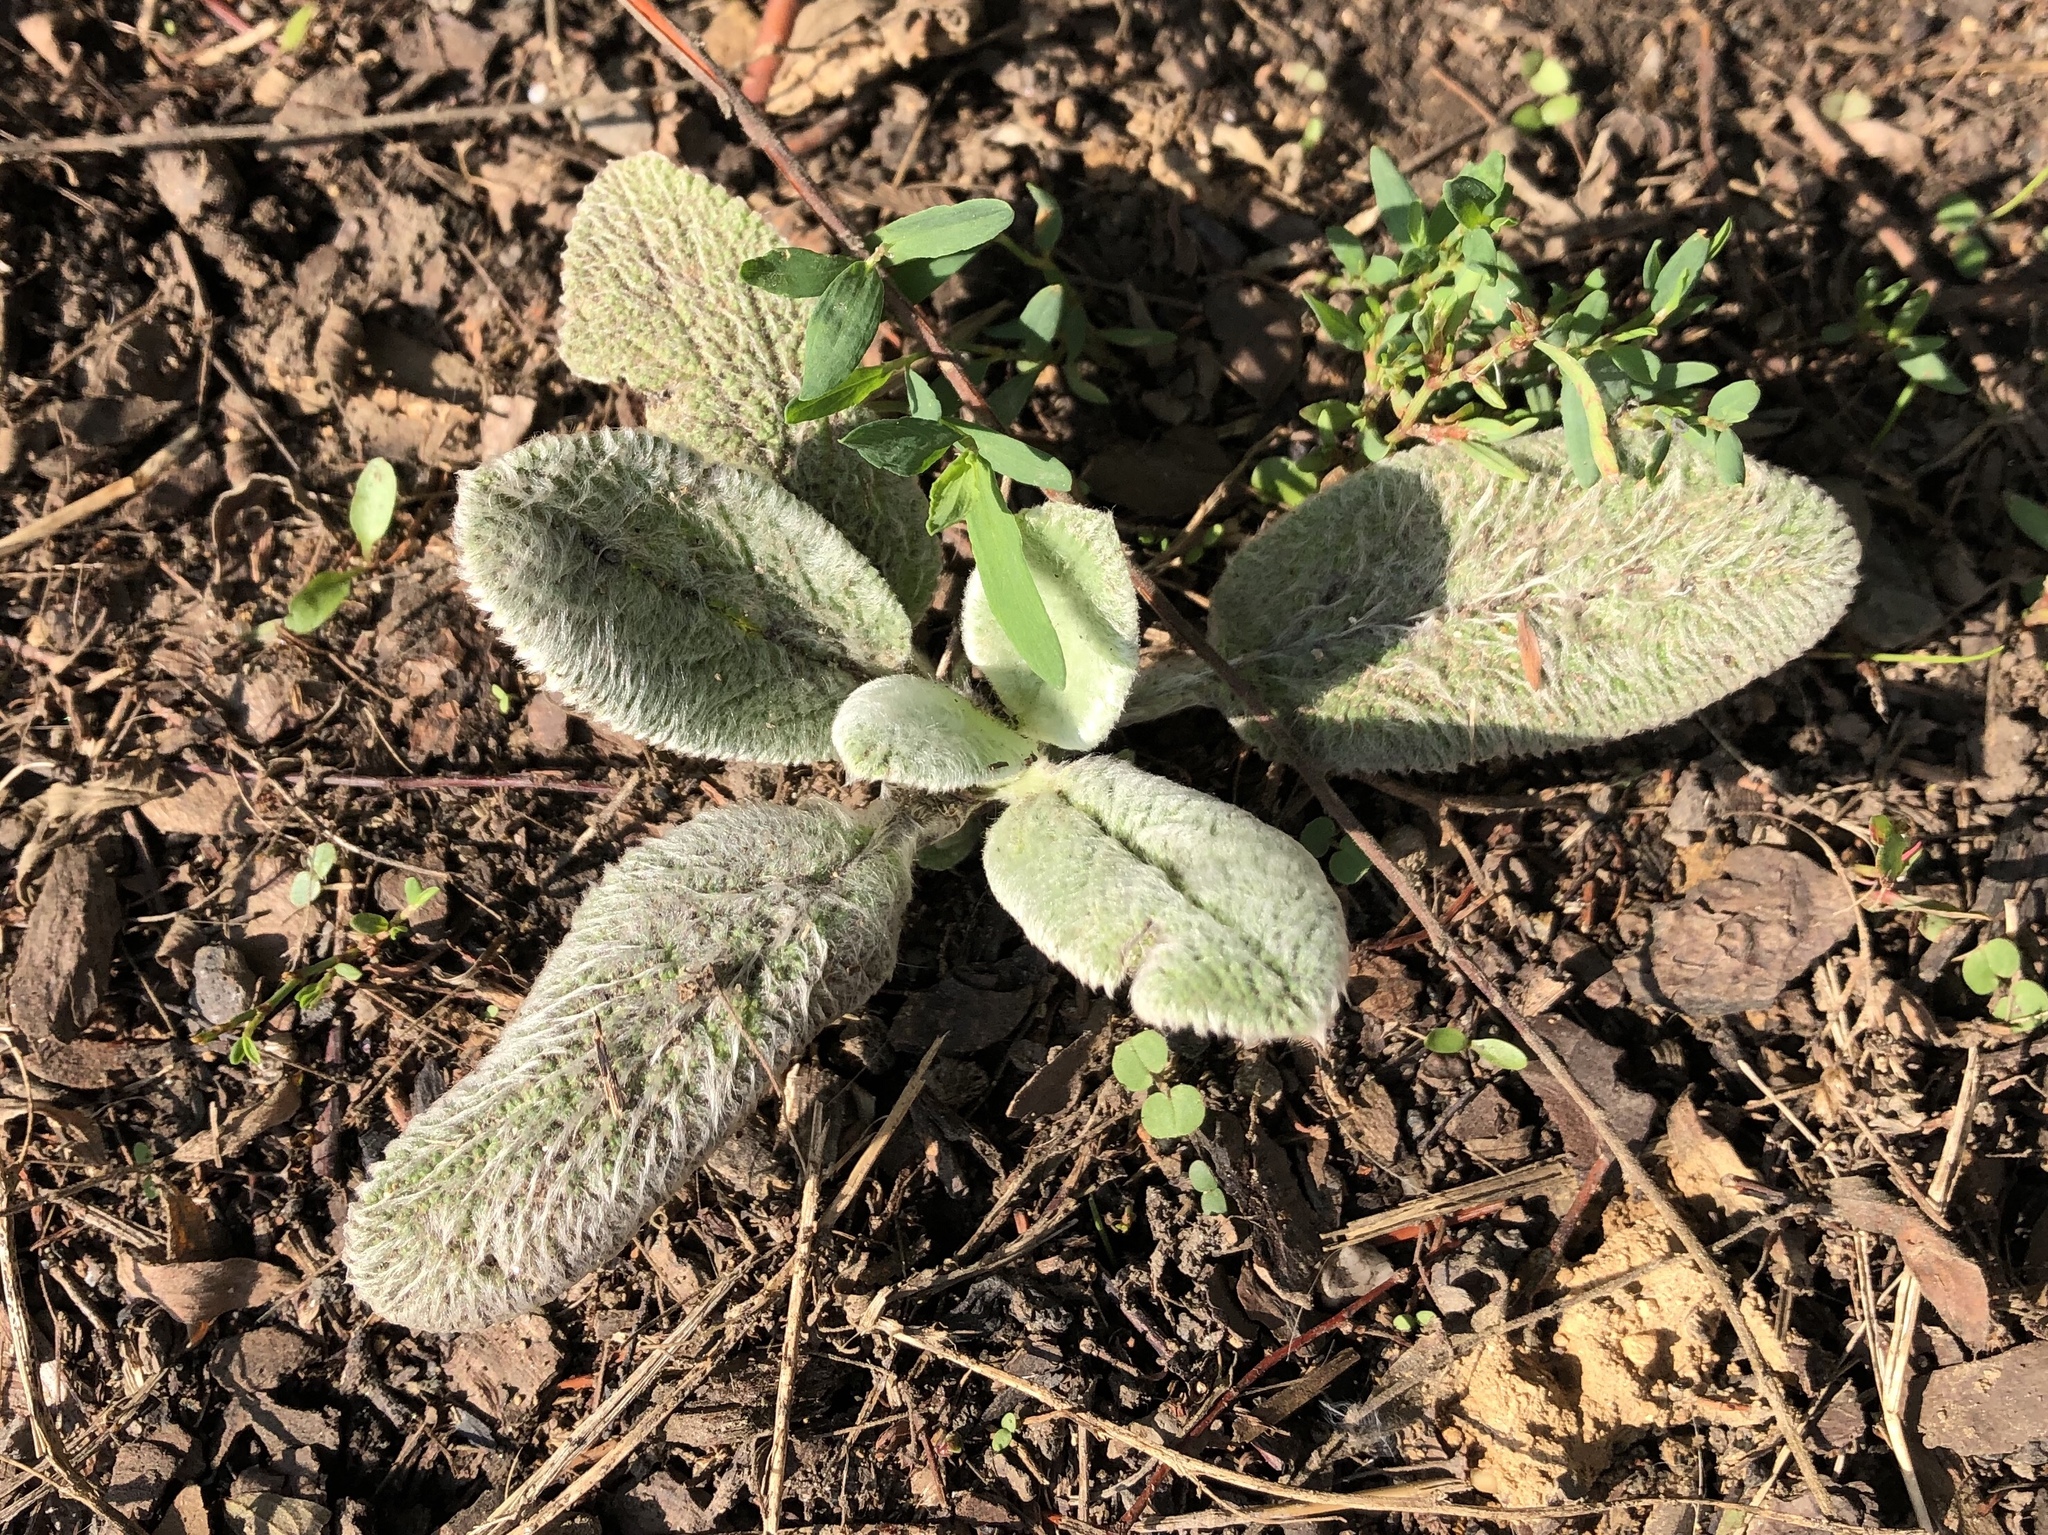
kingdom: Plantae
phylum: Tracheophyta
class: Magnoliopsida
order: Lamiales
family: Lamiaceae
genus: Stachys
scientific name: Stachys byzantina
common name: Lamb's-ear
